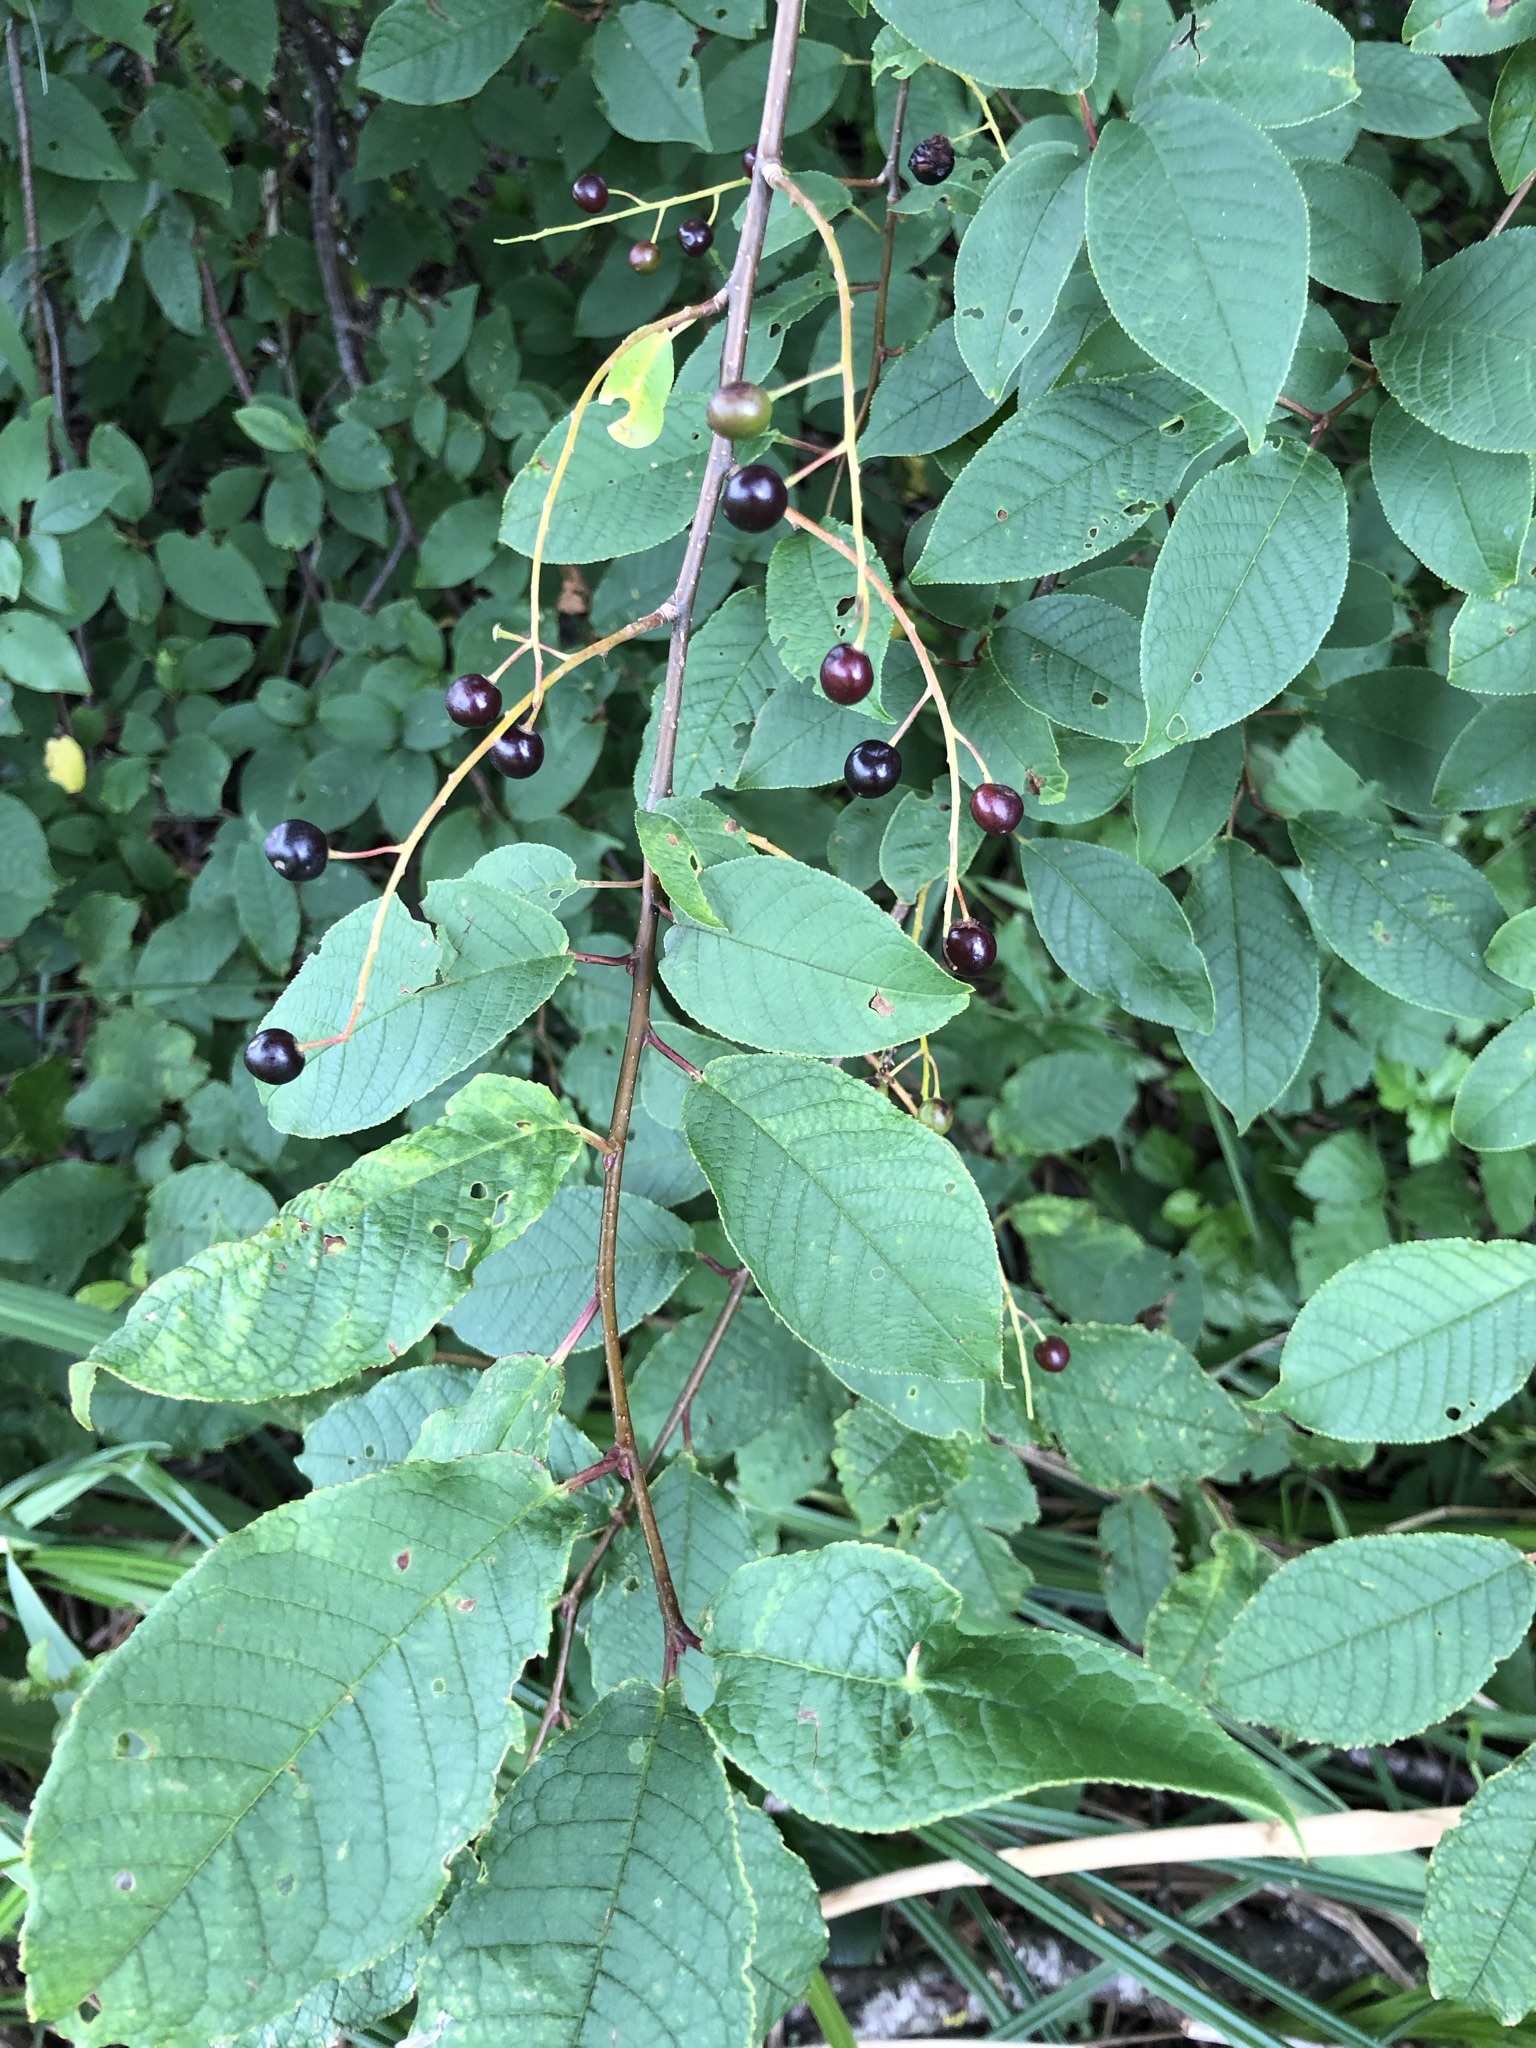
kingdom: Plantae
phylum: Tracheophyta
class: Magnoliopsida
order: Rosales
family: Rosaceae
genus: Prunus
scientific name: Prunus padus
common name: Bird cherry
